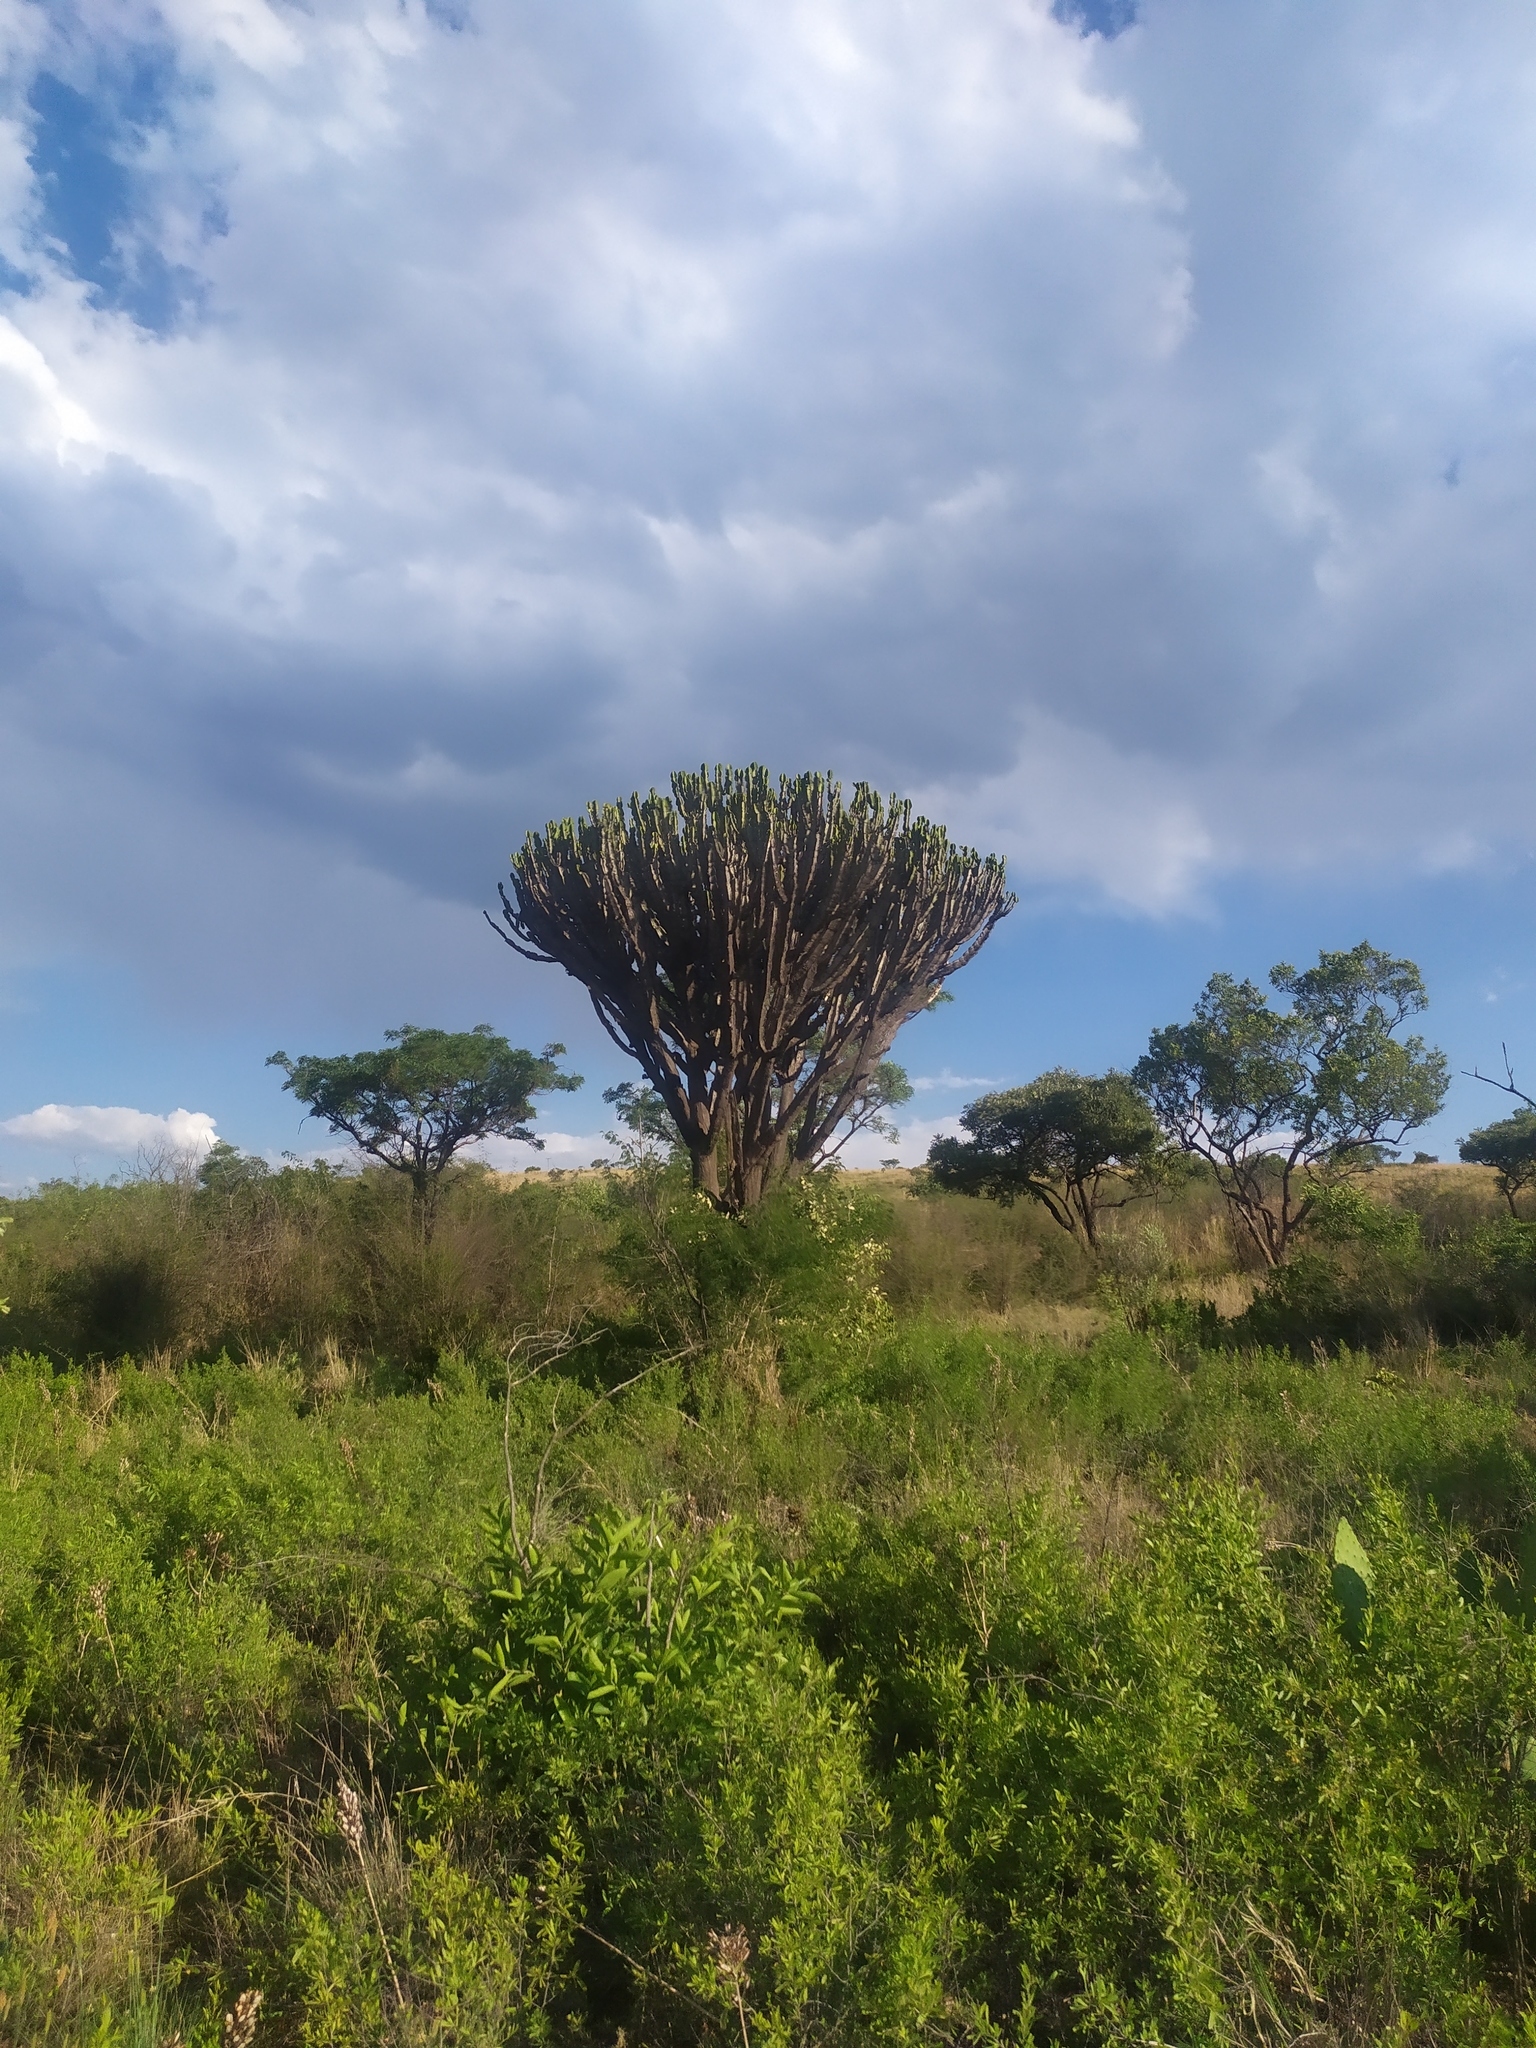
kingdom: Plantae
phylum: Tracheophyta
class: Magnoliopsida
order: Malpighiales
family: Euphorbiaceae
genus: Euphorbia
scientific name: Euphorbia ingens
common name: Cactus spurge
